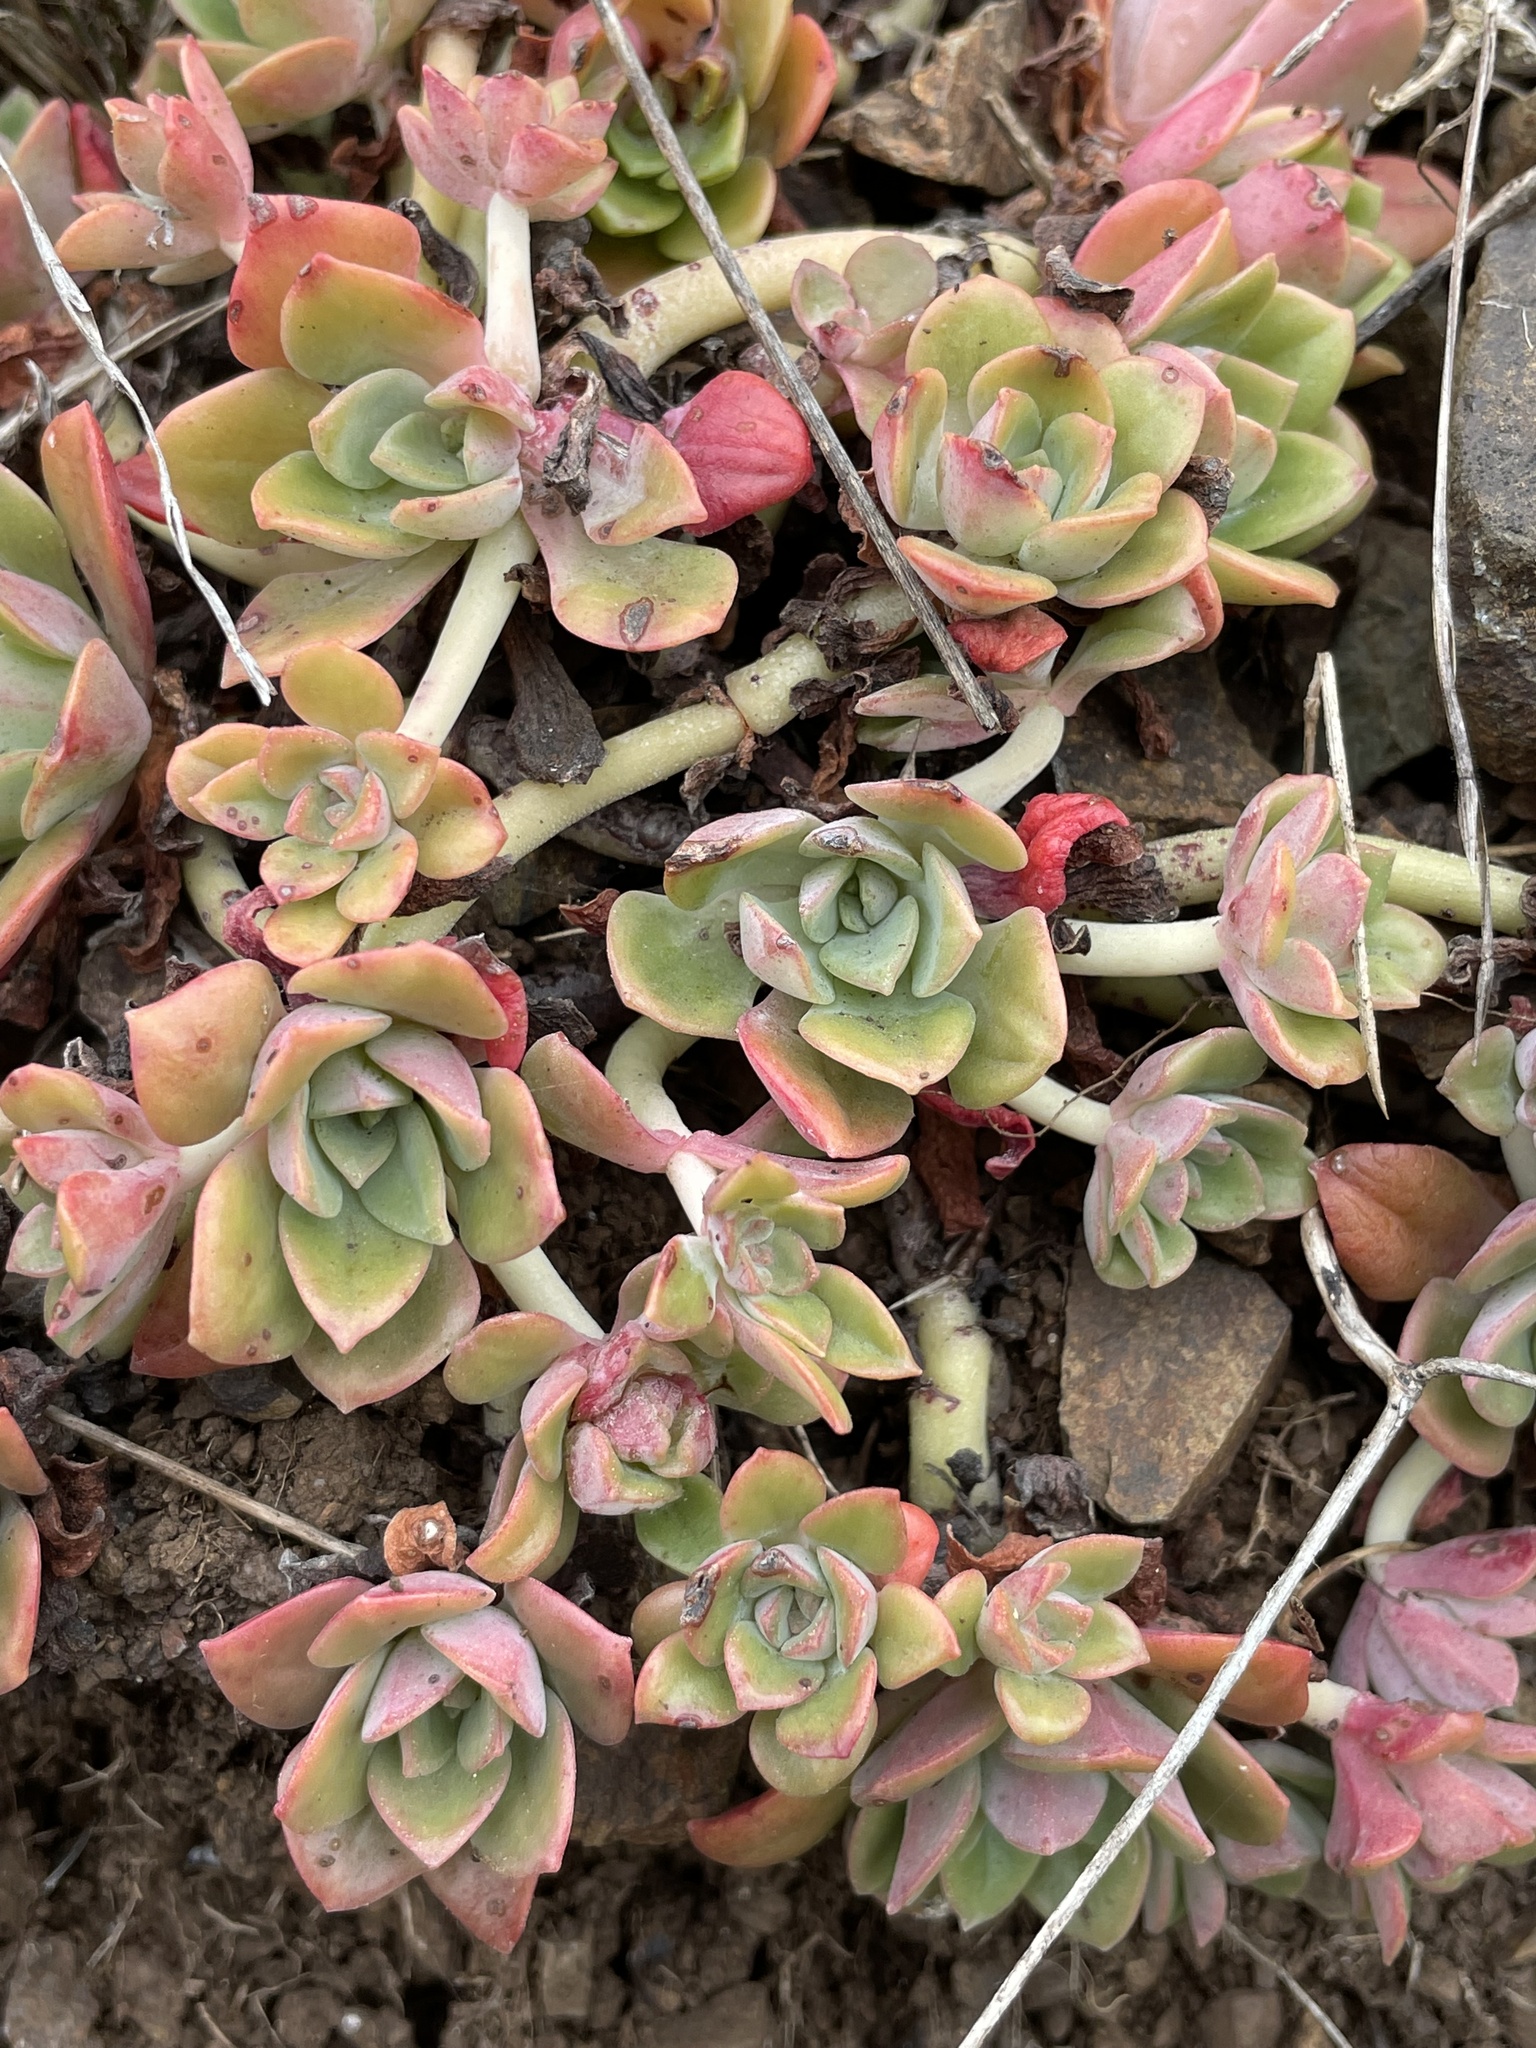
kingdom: Plantae
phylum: Tracheophyta
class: Magnoliopsida
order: Saxifragales
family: Crassulaceae
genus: Sedum
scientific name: Sedum spathulifolium
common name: Colorado stonecrop
